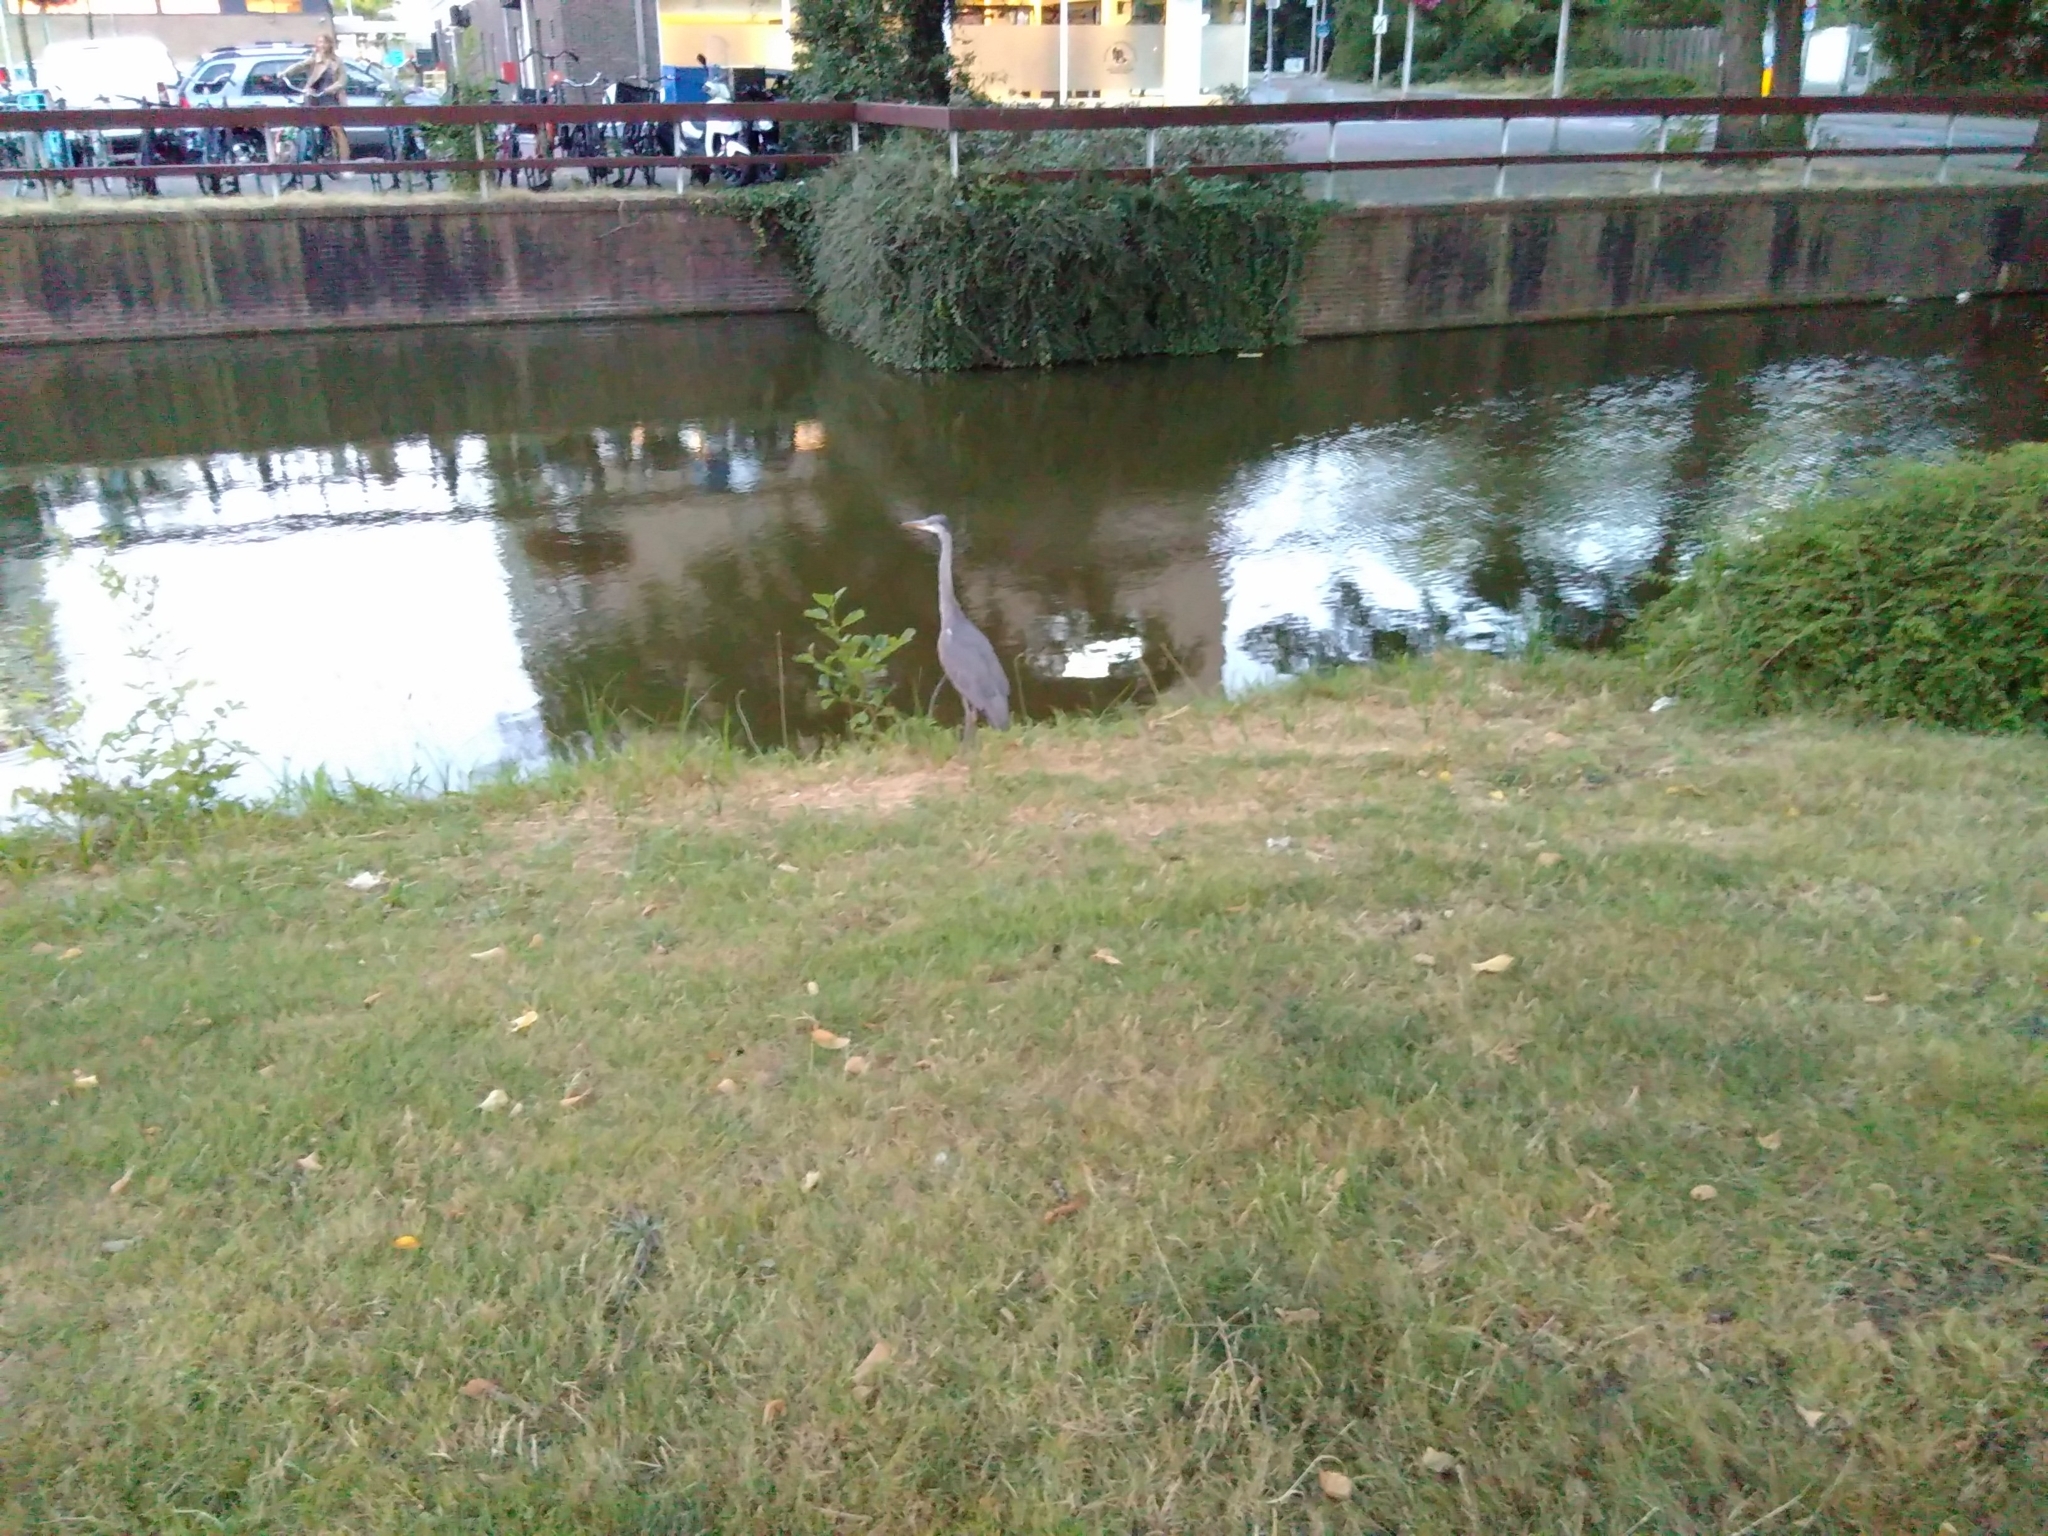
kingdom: Animalia
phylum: Chordata
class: Aves
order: Pelecaniformes
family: Ardeidae
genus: Ardea
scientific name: Ardea cinerea
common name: Grey heron
